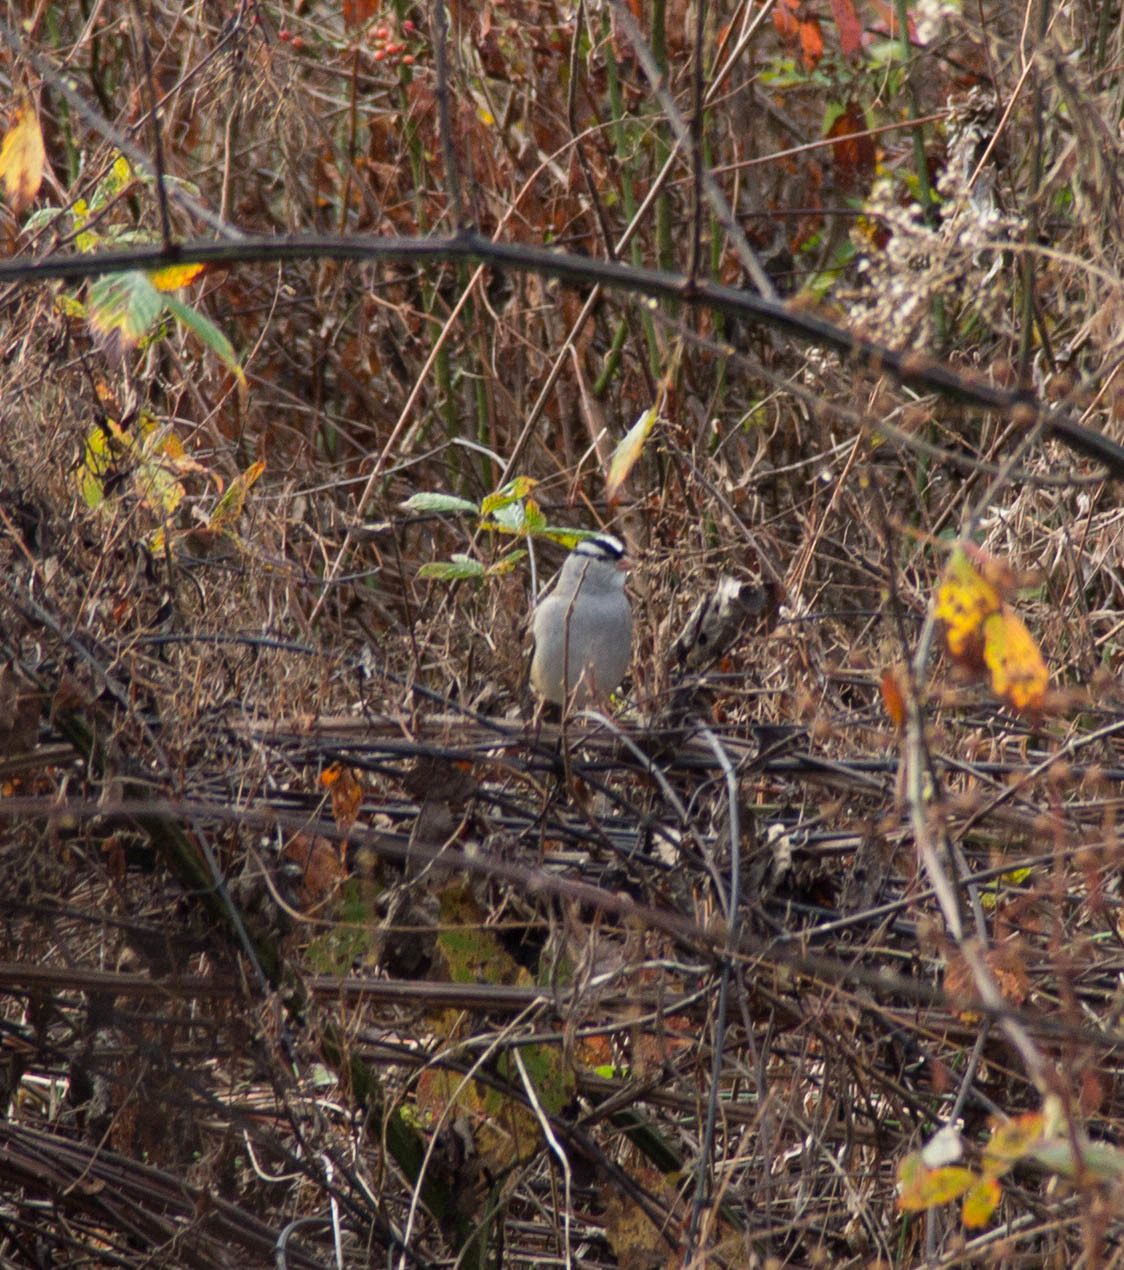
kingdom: Animalia
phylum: Chordata
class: Aves
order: Passeriformes
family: Passerellidae
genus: Zonotrichia
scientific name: Zonotrichia leucophrys
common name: White-crowned sparrow
